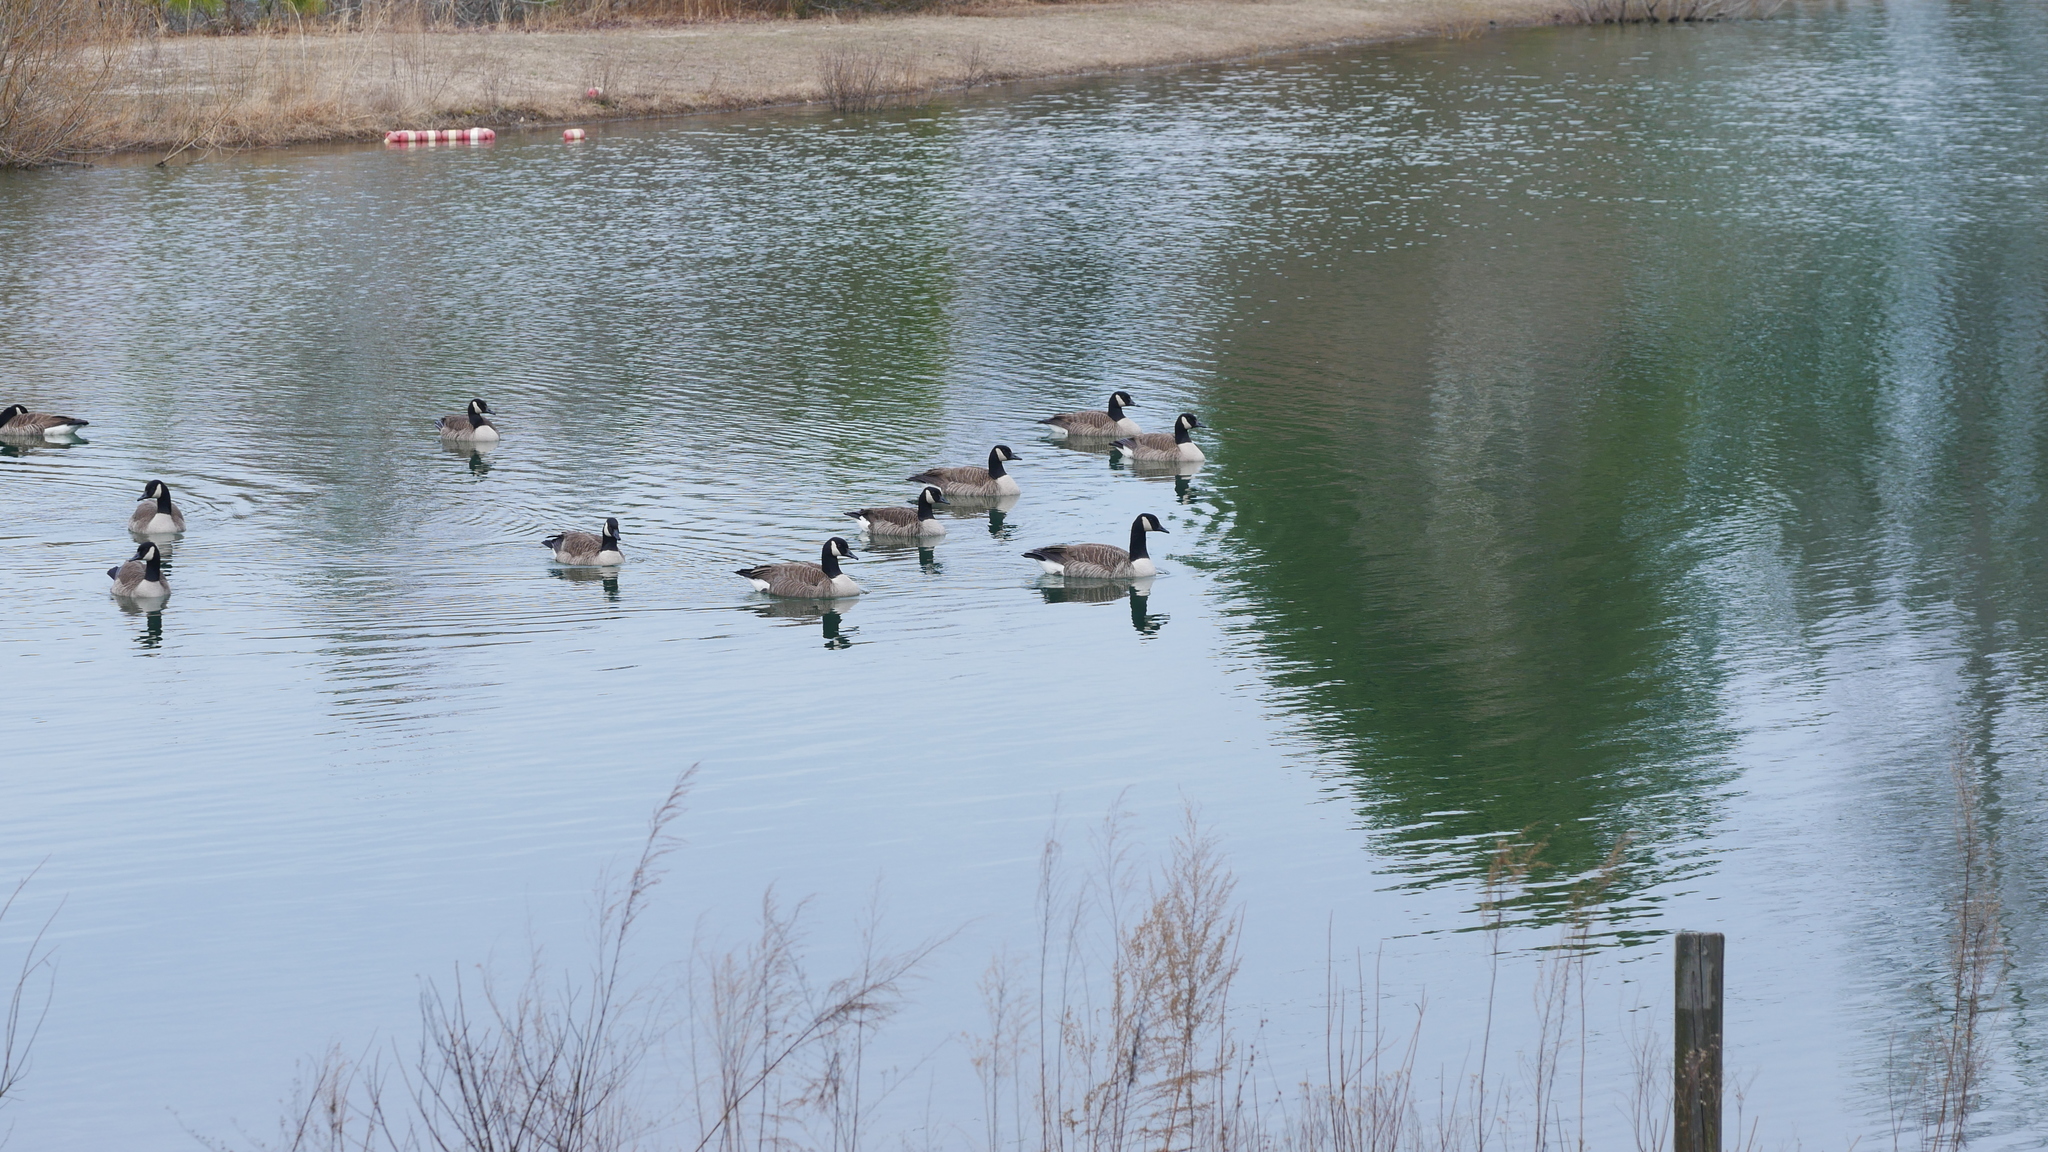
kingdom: Animalia
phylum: Chordata
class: Aves
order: Anseriformes
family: Anatidae
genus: Branta
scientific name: Branta canadensis
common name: Canada goose
